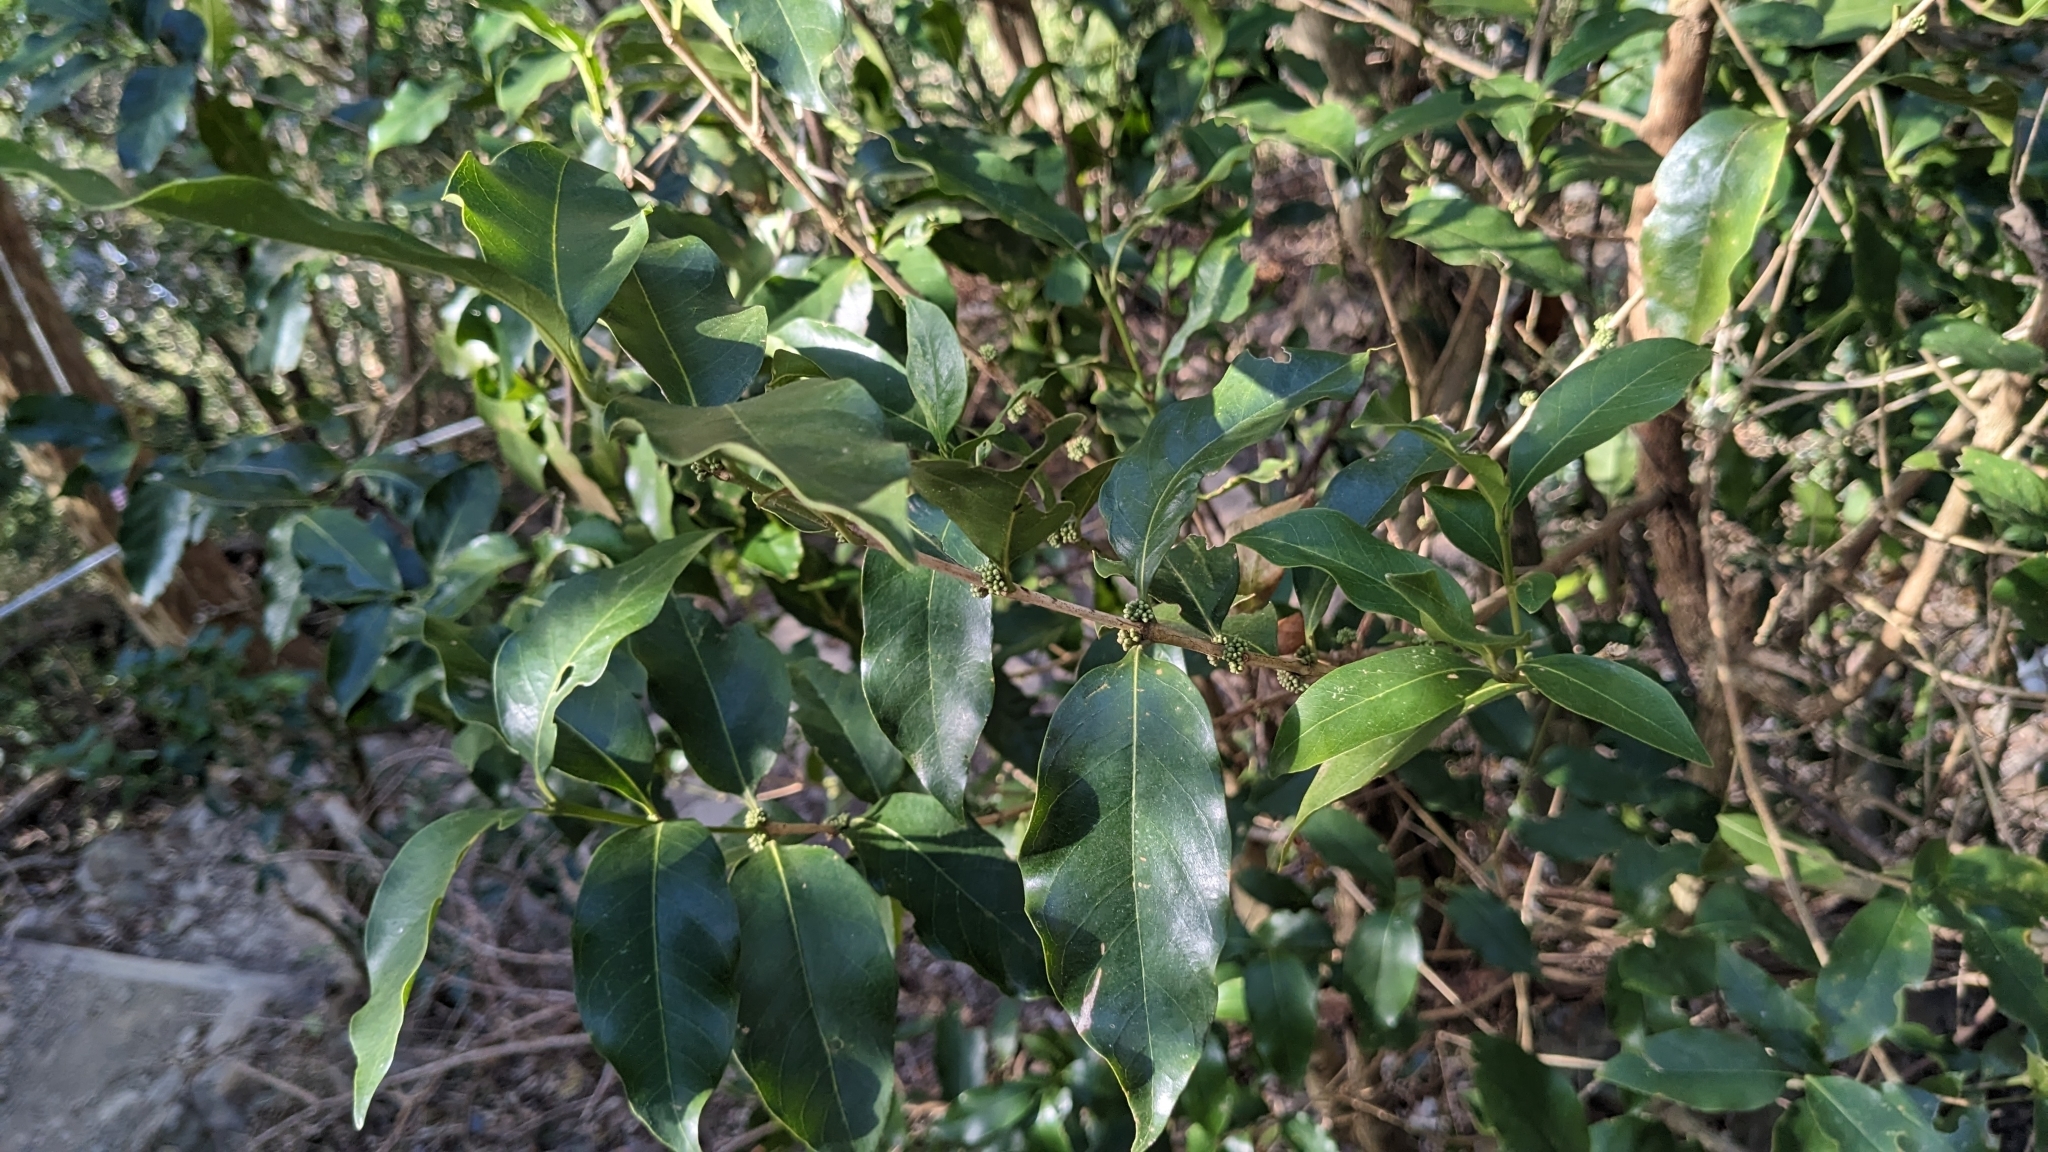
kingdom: Plantae
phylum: Tracheophyta
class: Magnoliopsida
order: Gentianales
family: Rubiaceae
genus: Diplospora
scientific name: Diplospora dubia
